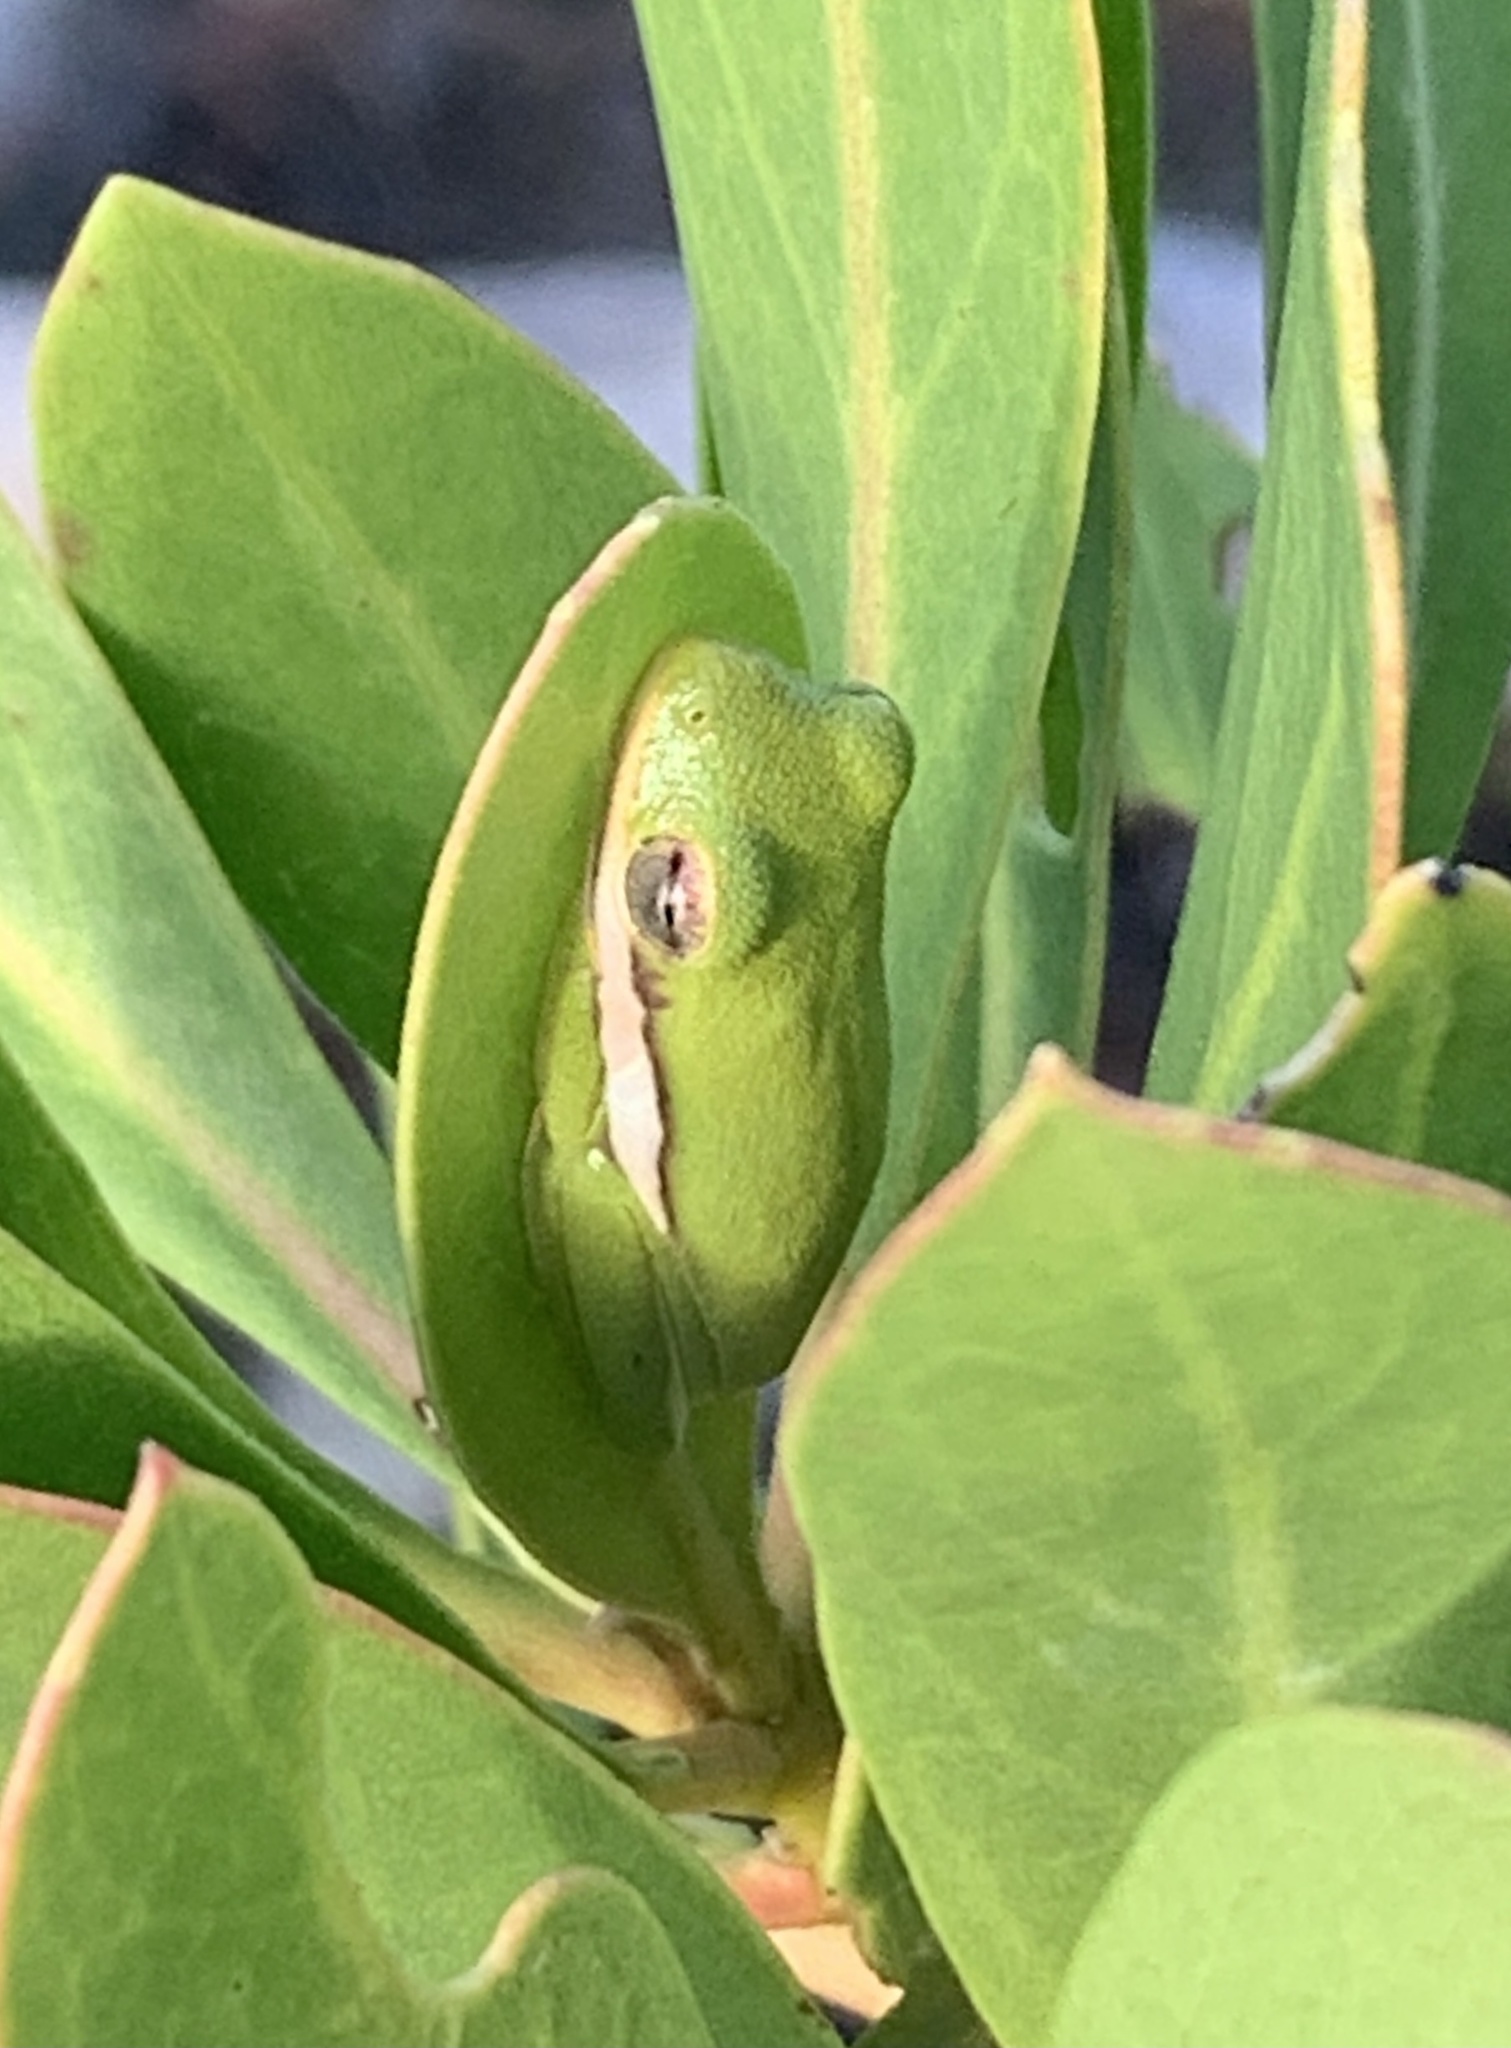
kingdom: Animalia
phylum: Chordata
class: Amphibia
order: Anura
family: Hylidae
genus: Dryophytes
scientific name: Dryophytes cinereus
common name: Green treefrog
